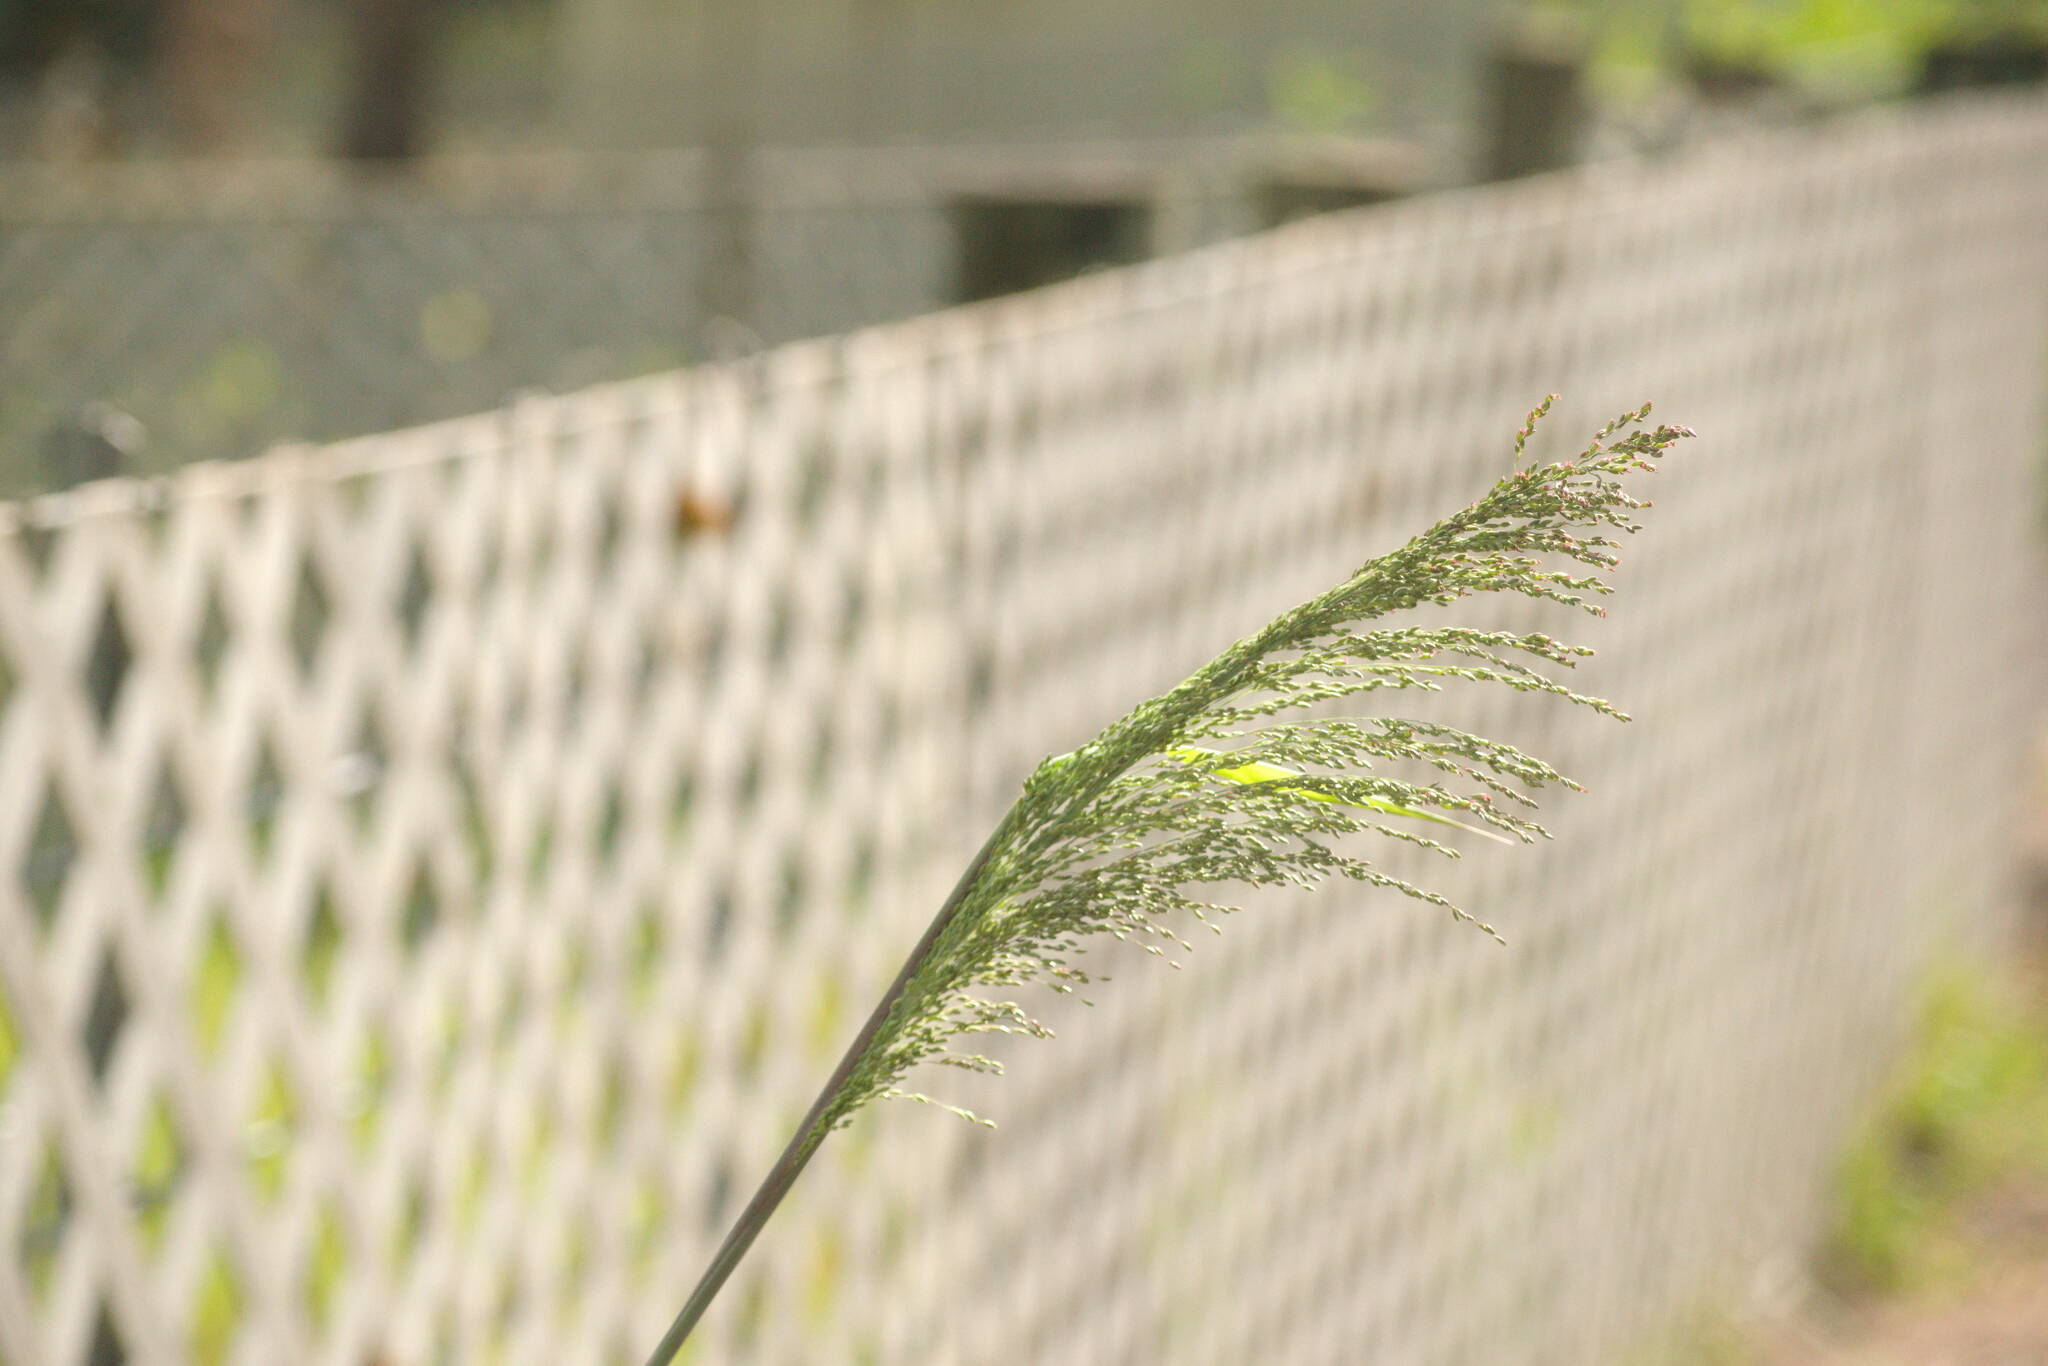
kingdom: Plantae
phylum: Tracheophyta
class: Liliopsida
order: Poales
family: Poaceae
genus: Megathyrsus
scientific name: Megathyrsus maximus
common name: Guineagrass
